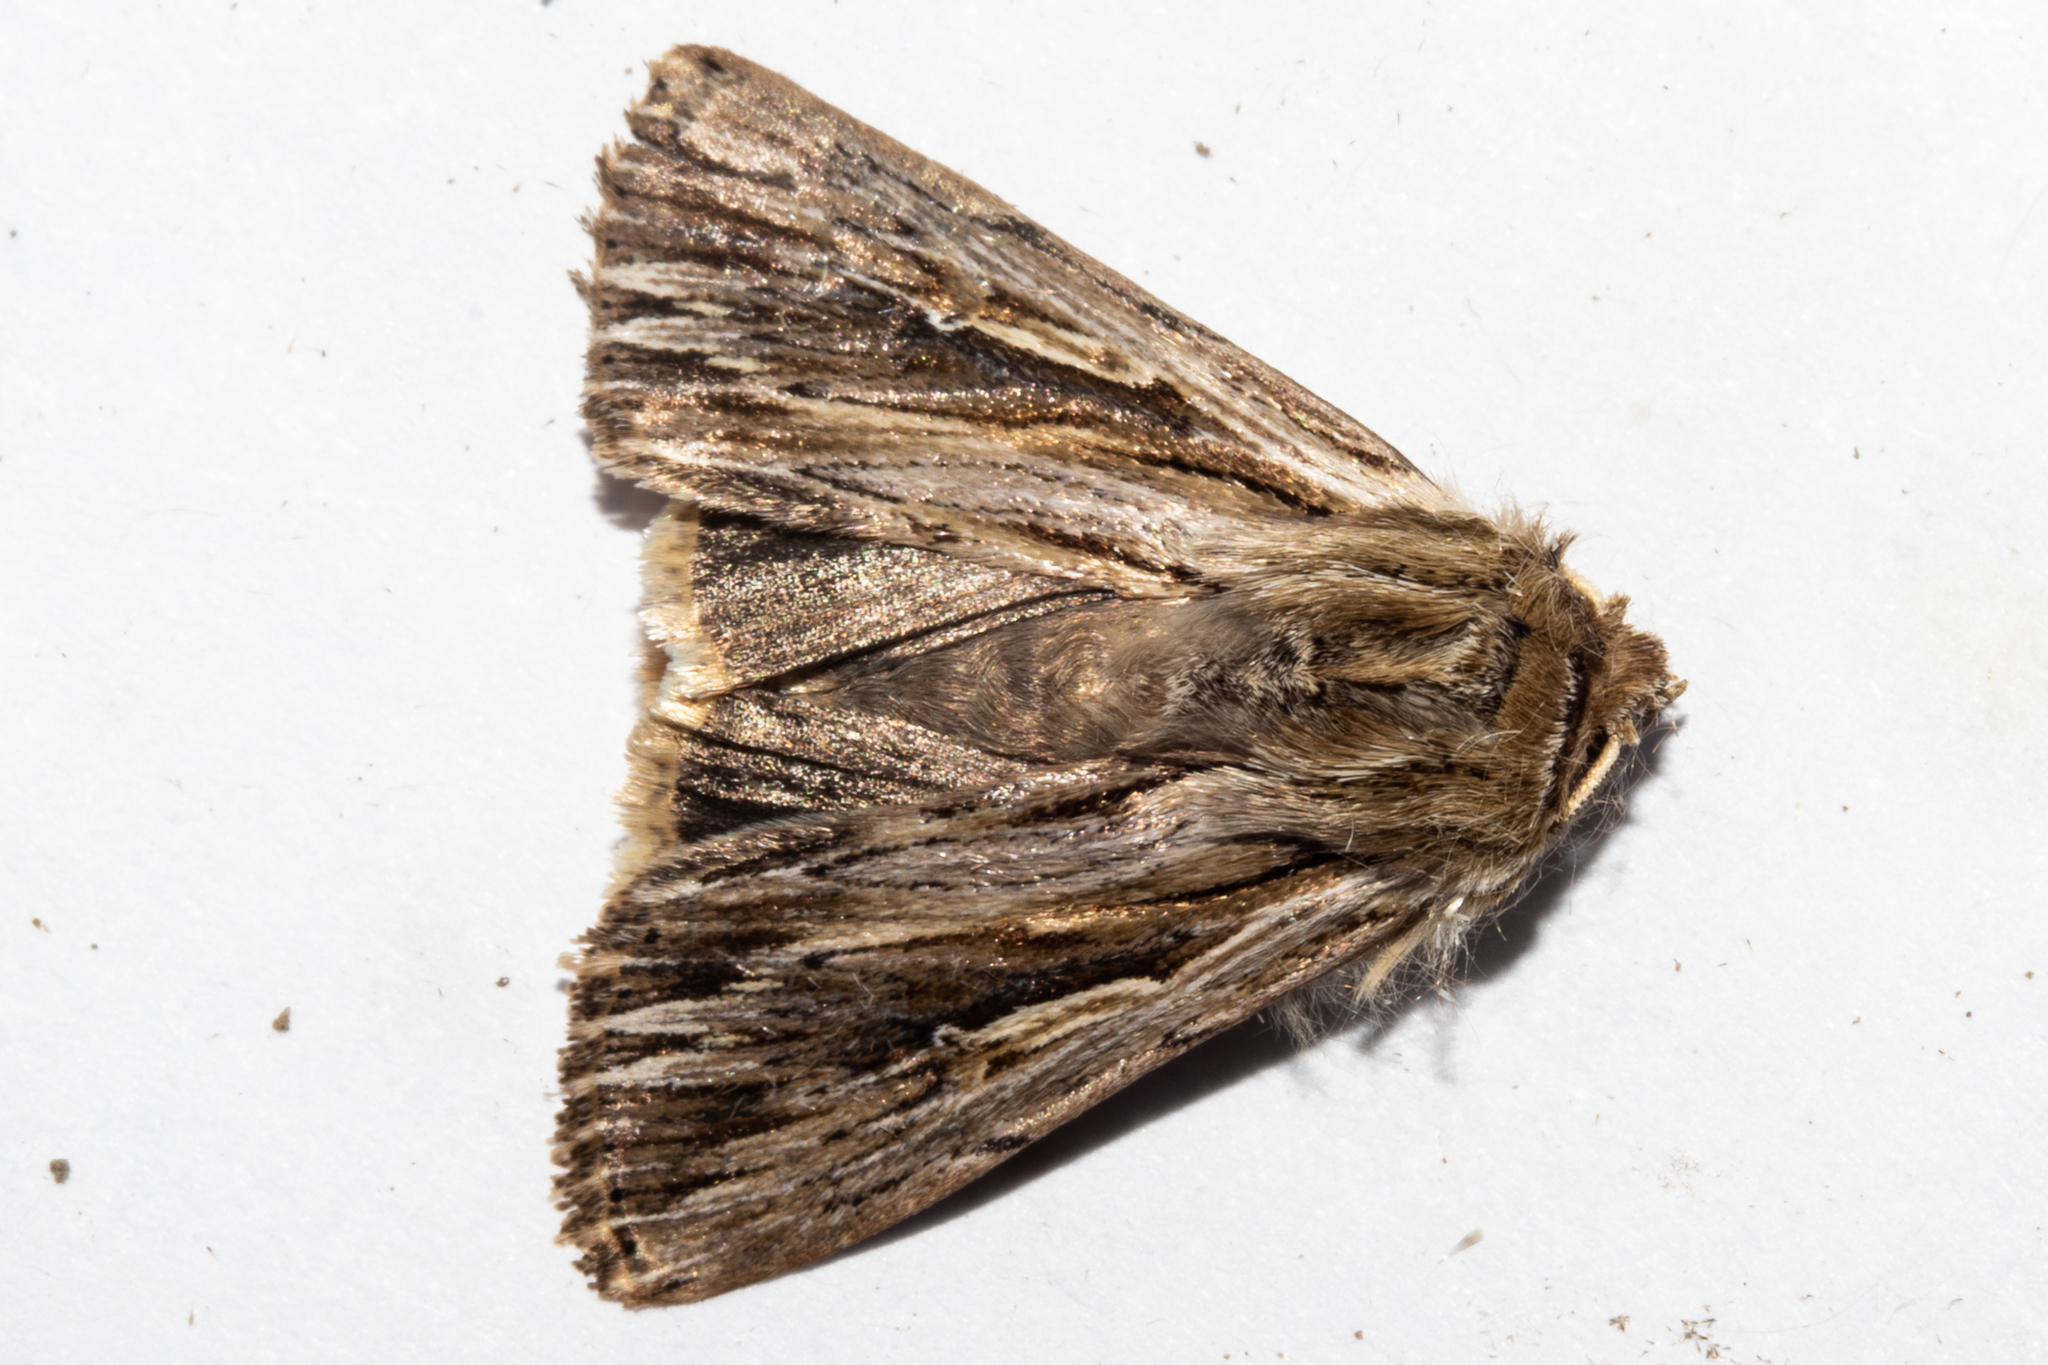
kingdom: Animalia
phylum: Arthropoda
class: Insecta
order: Lepidoptera
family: Noctuidae
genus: Persectania
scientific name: Persectania aversa
